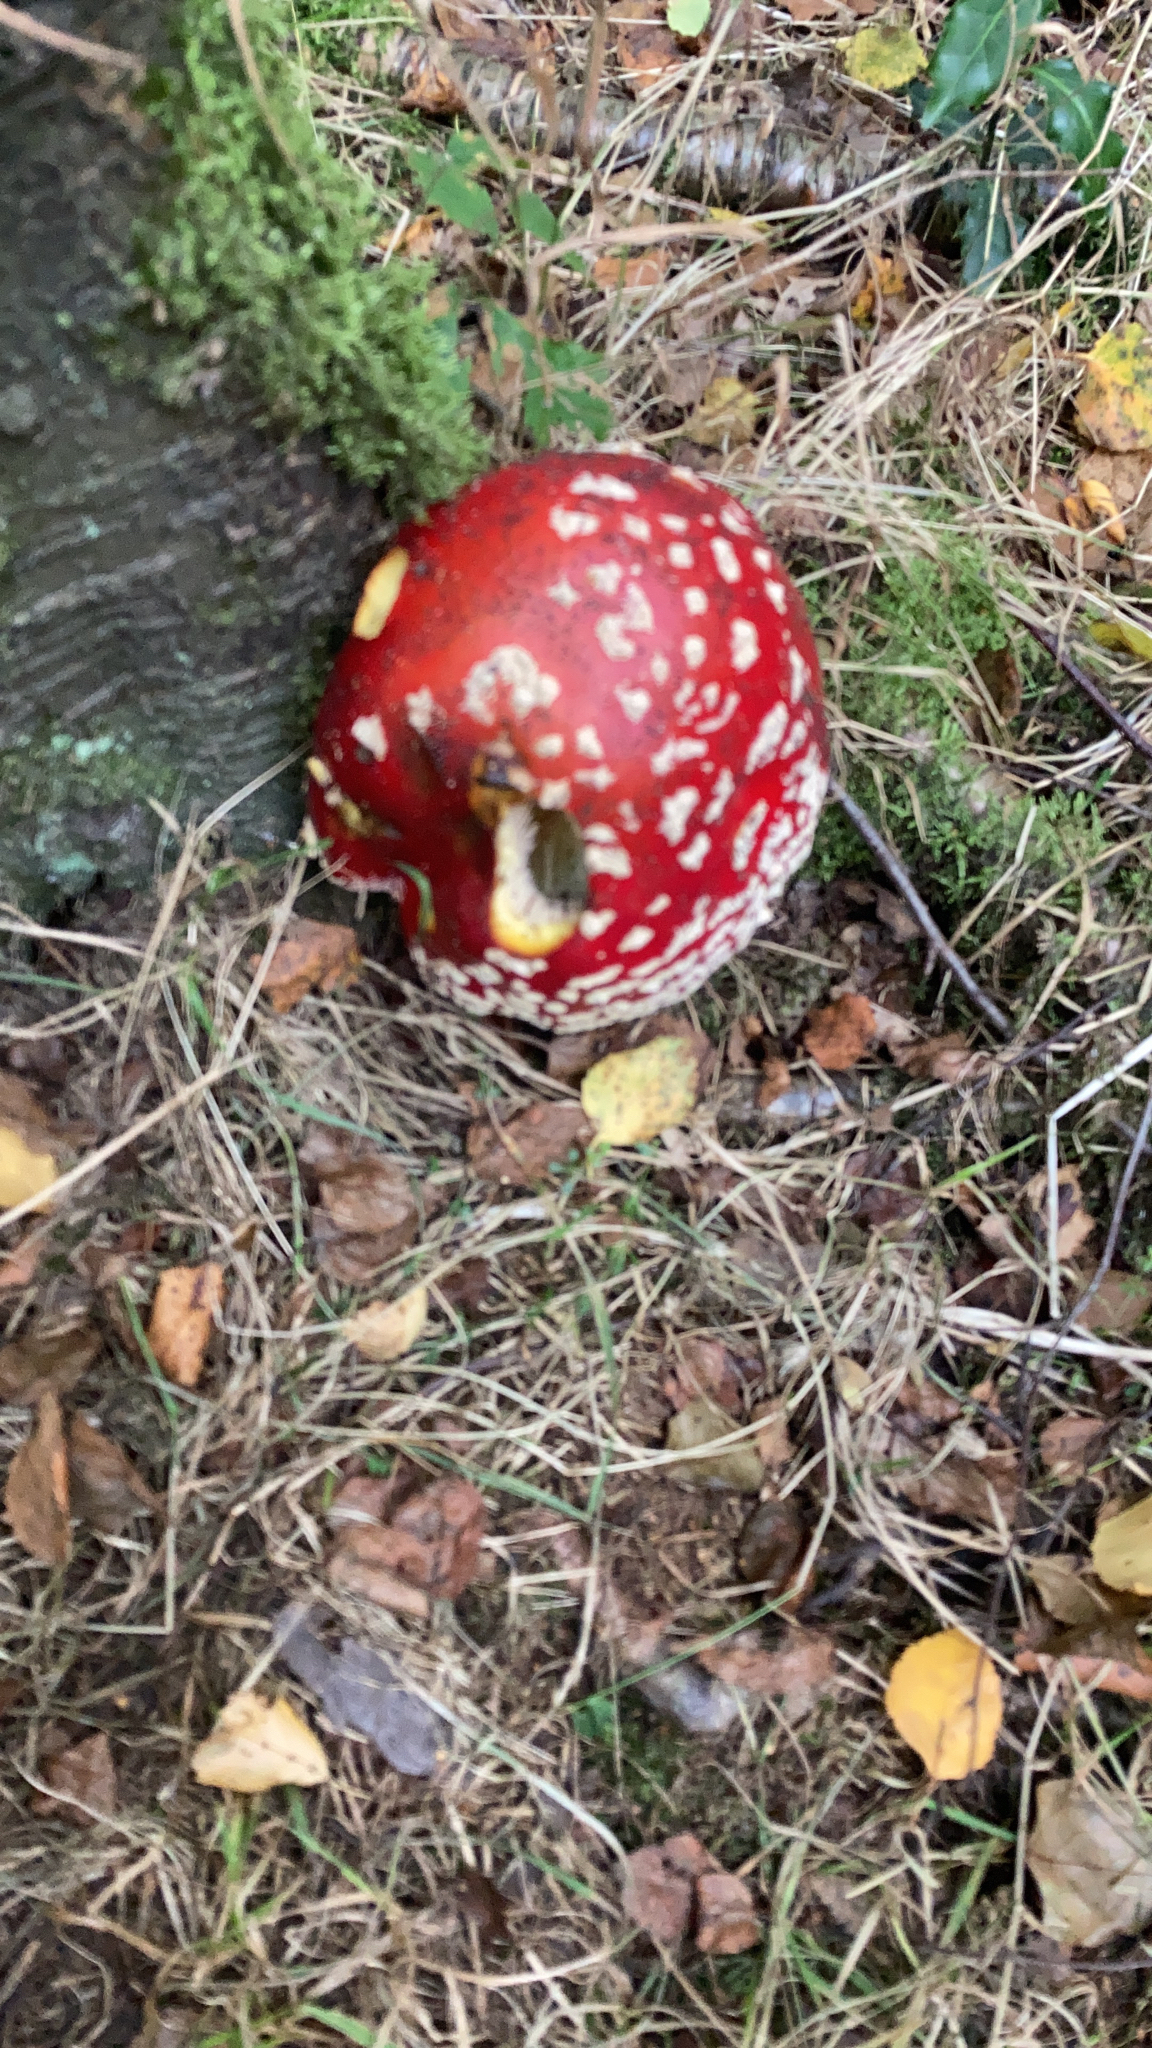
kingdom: Fungi
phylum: Basidiomycota
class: Agaricomycetes
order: Agaricales
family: Amanitaceae
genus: Amanita
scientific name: Amanita muscaria
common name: Fly agaric
